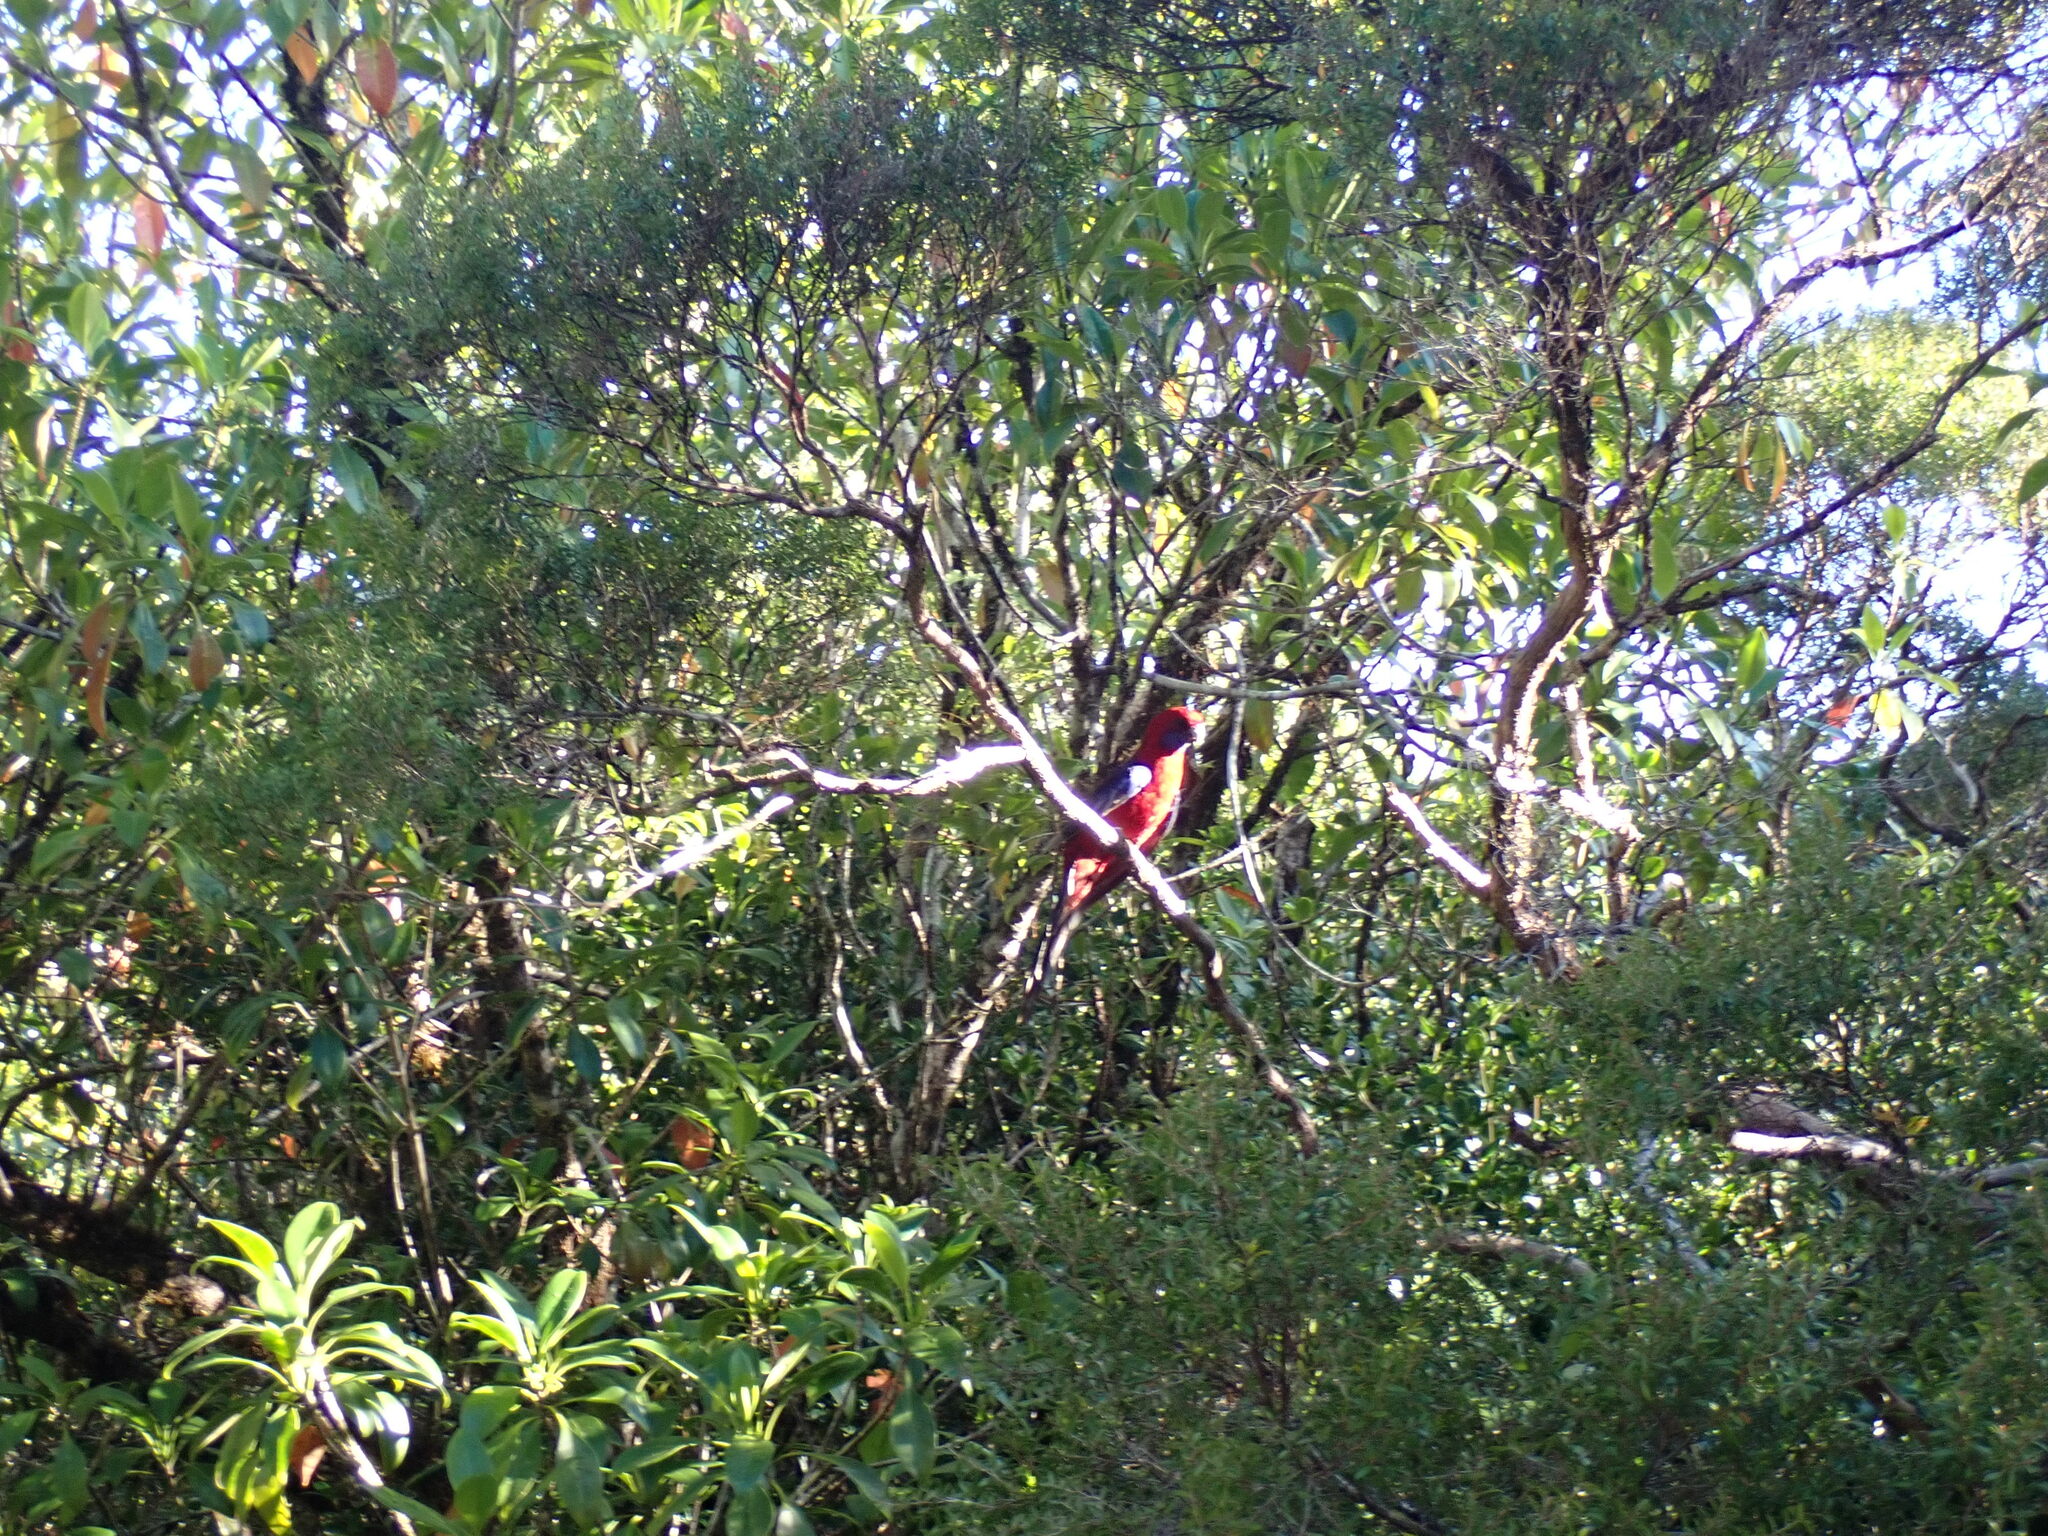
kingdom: Animalia
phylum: Chordata
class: Aves
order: Psittaciformes
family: Psittacidae
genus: Platycercus
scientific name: Platycercus elegans
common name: Crimson rosella
